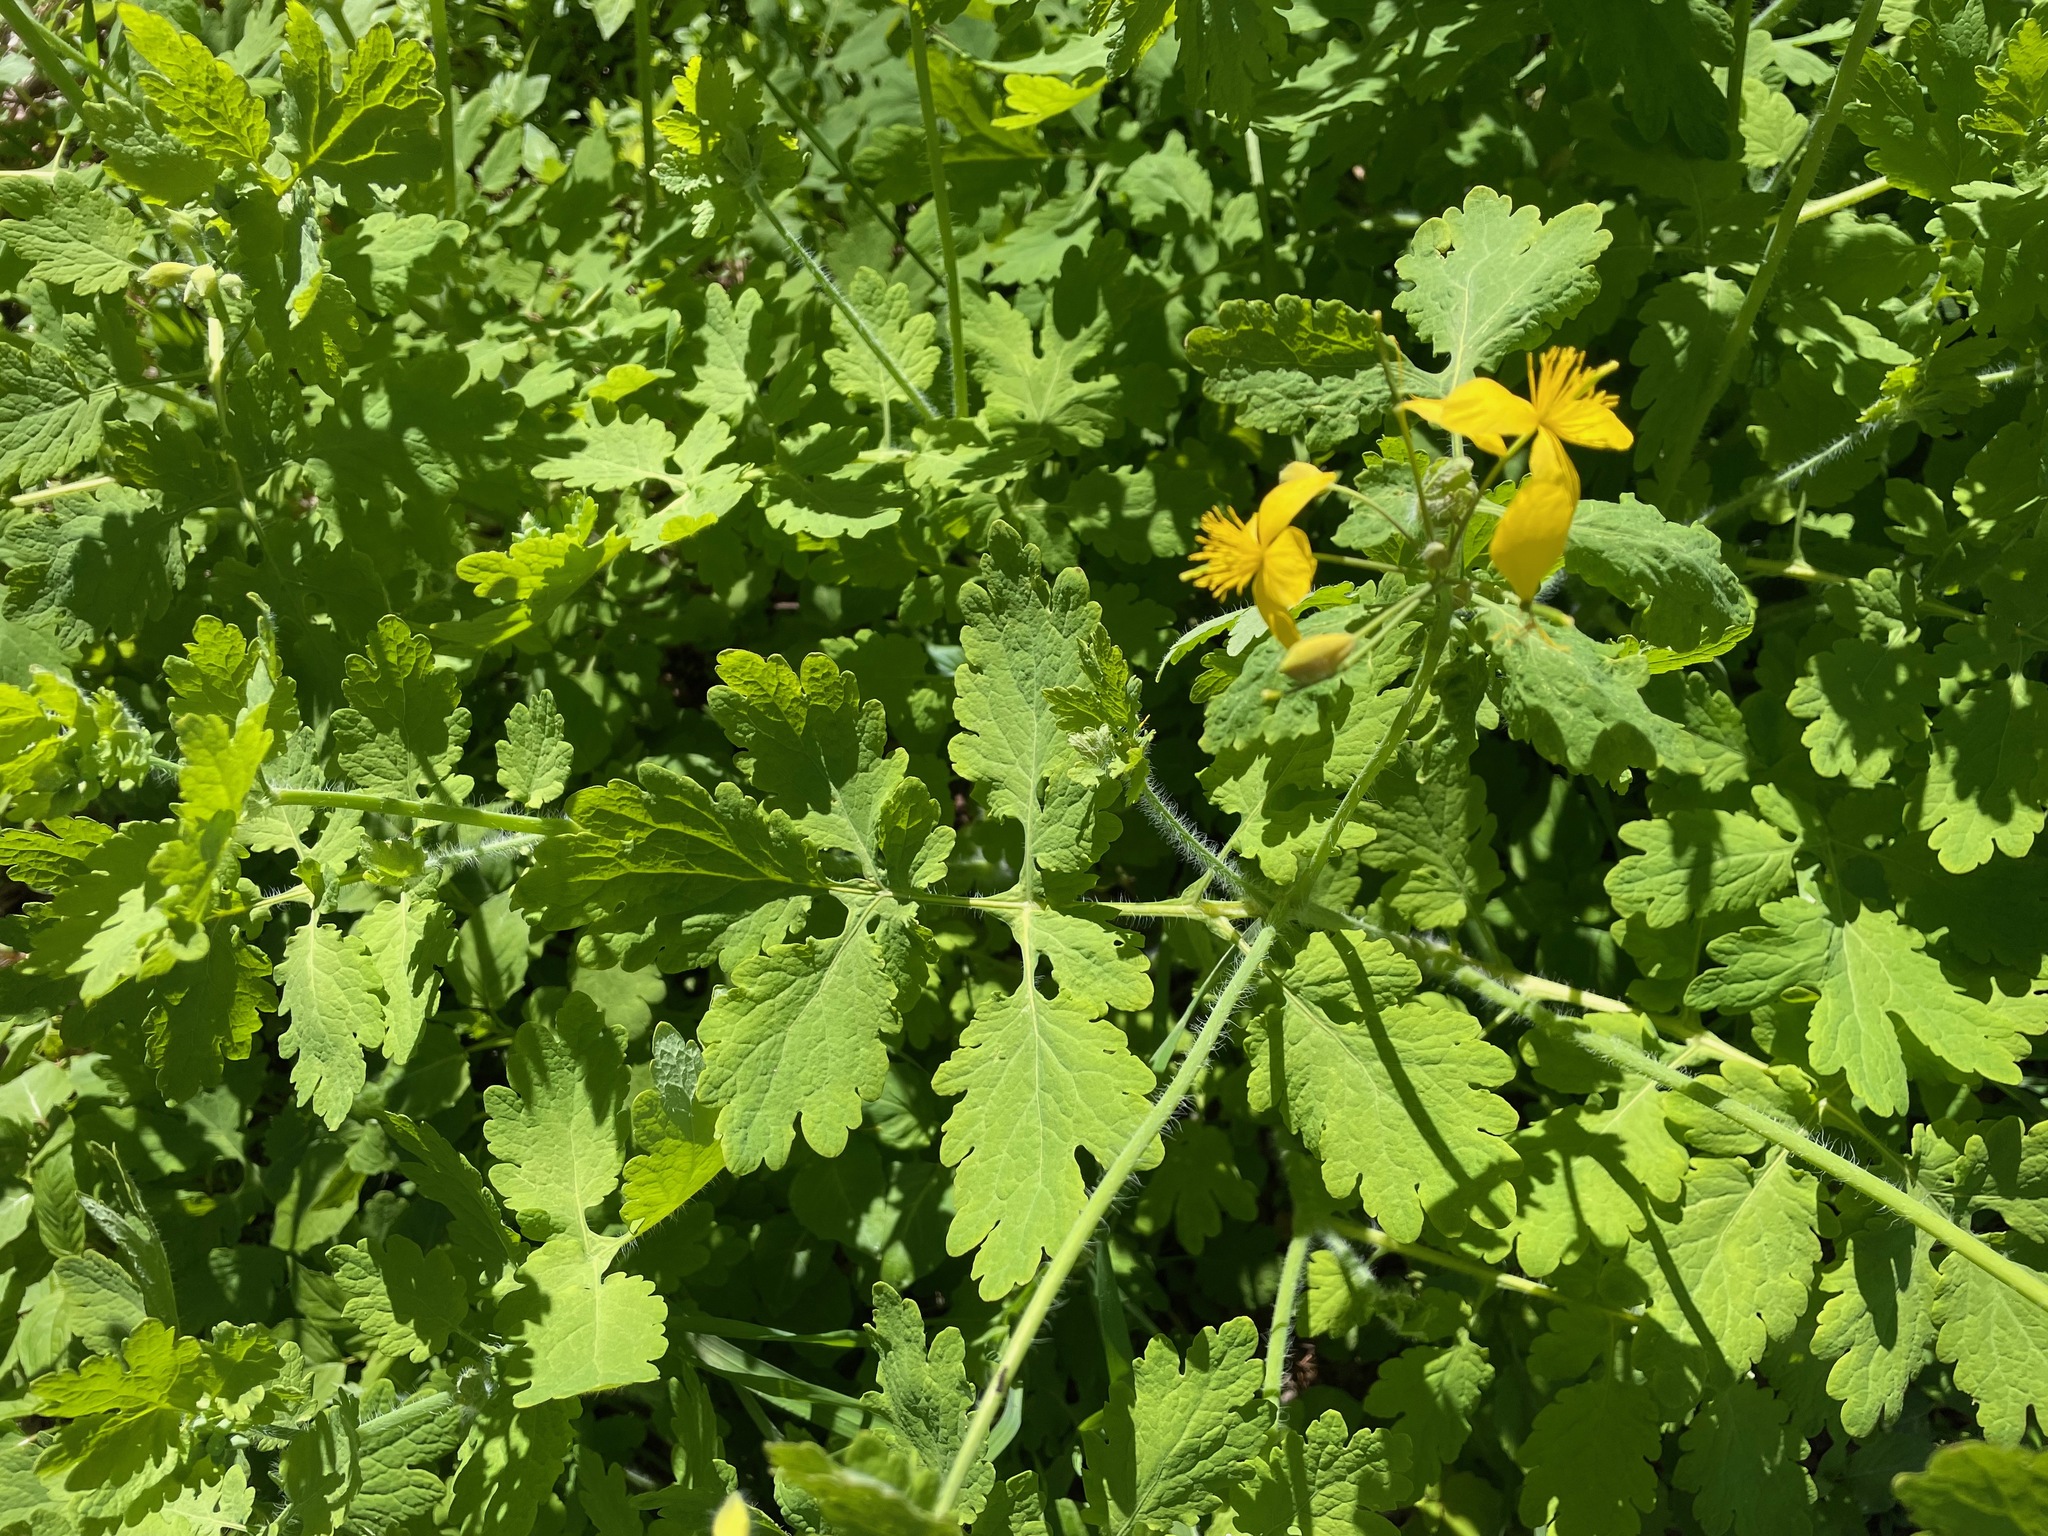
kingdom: Plantae
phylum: Tracheophyta
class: Magnoliopsida
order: Ranunculales
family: Papaveraceae
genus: Chelidonium
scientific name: Chelidonium majus
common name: Greater celandine
